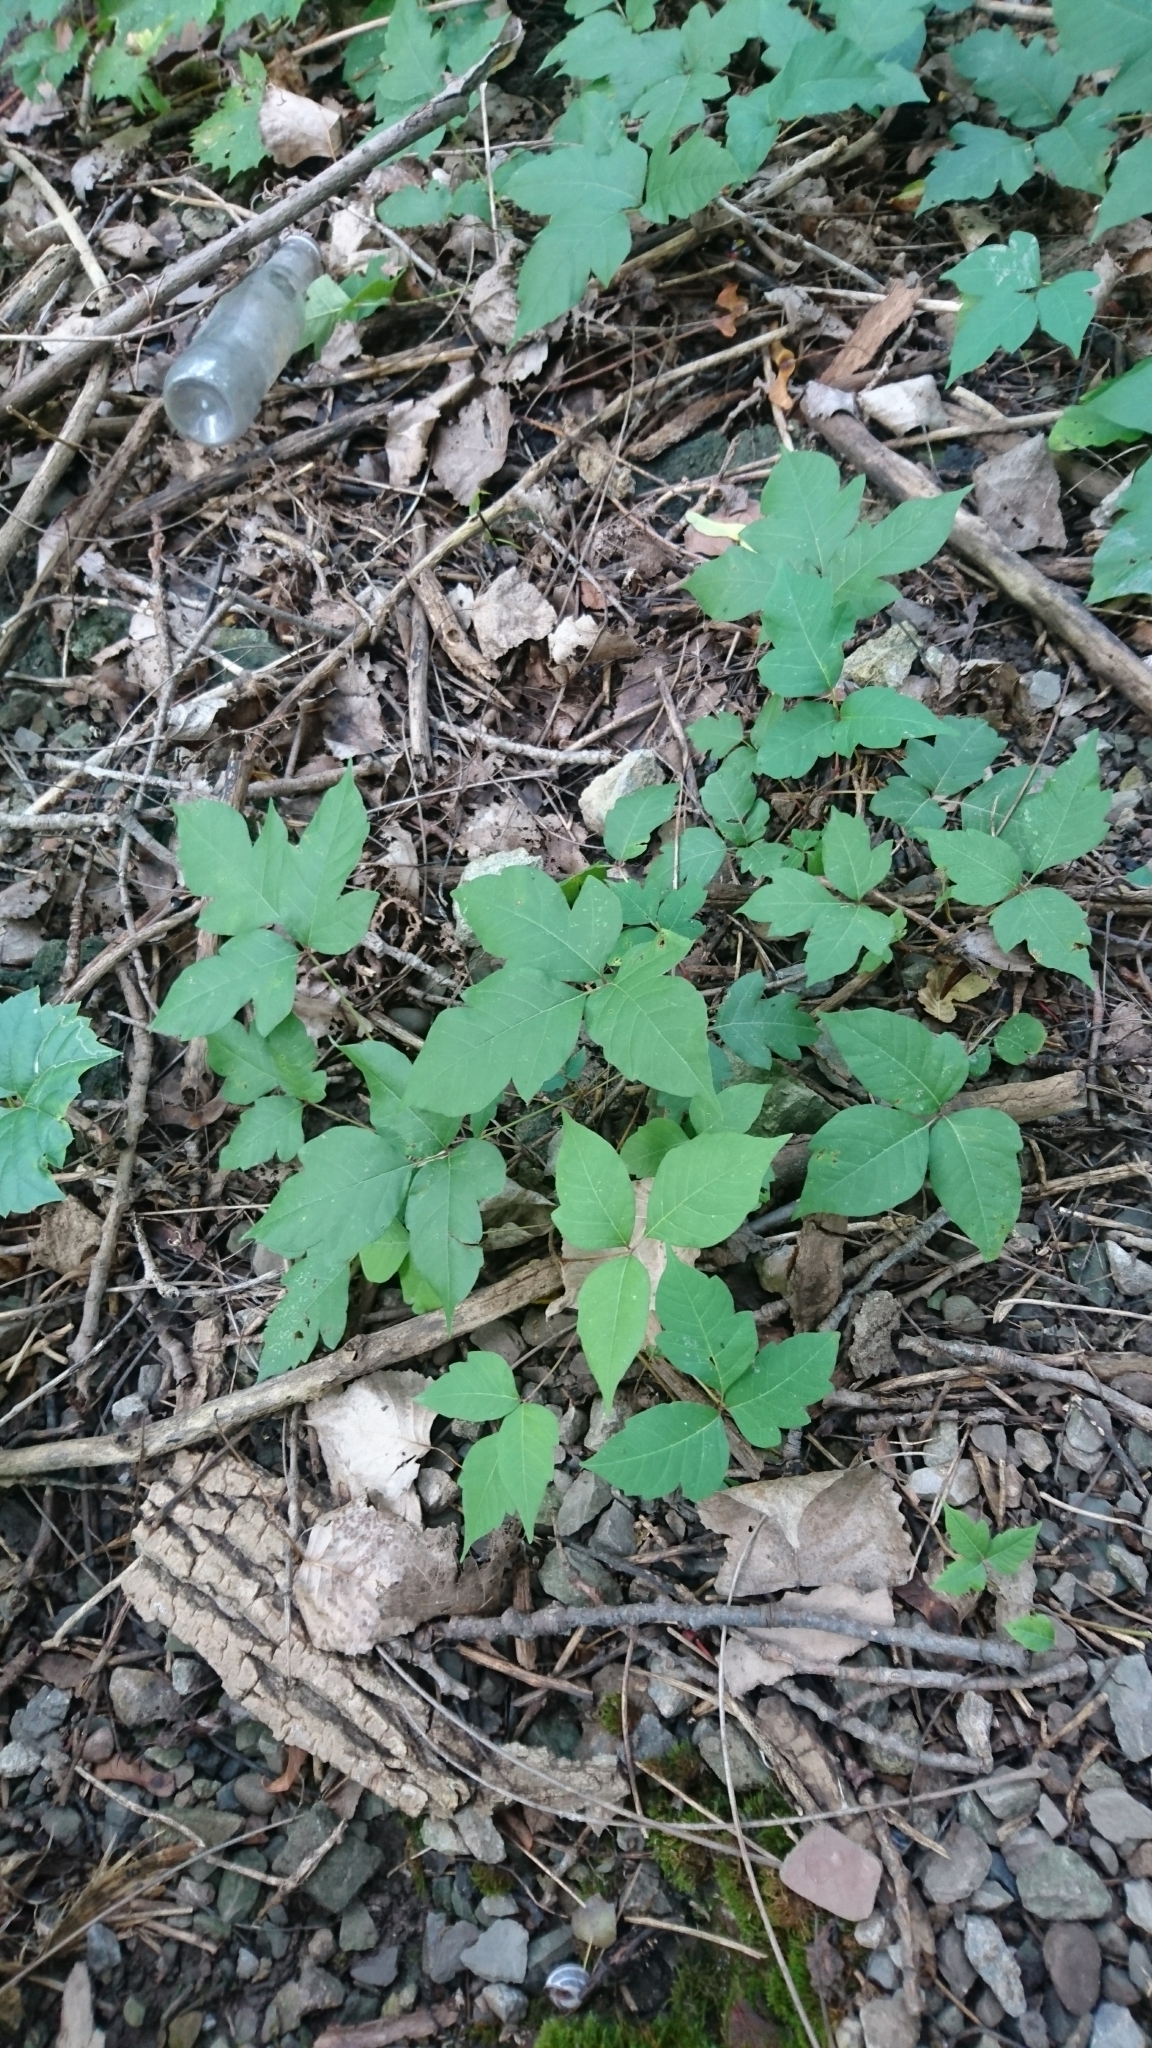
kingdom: Plantae
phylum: Tracheophyta
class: Magnoliopsida
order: Sapindales
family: Anacardiaceae
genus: Toxicodendron
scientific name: Toxicodendron radicans
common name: Poison ivy
